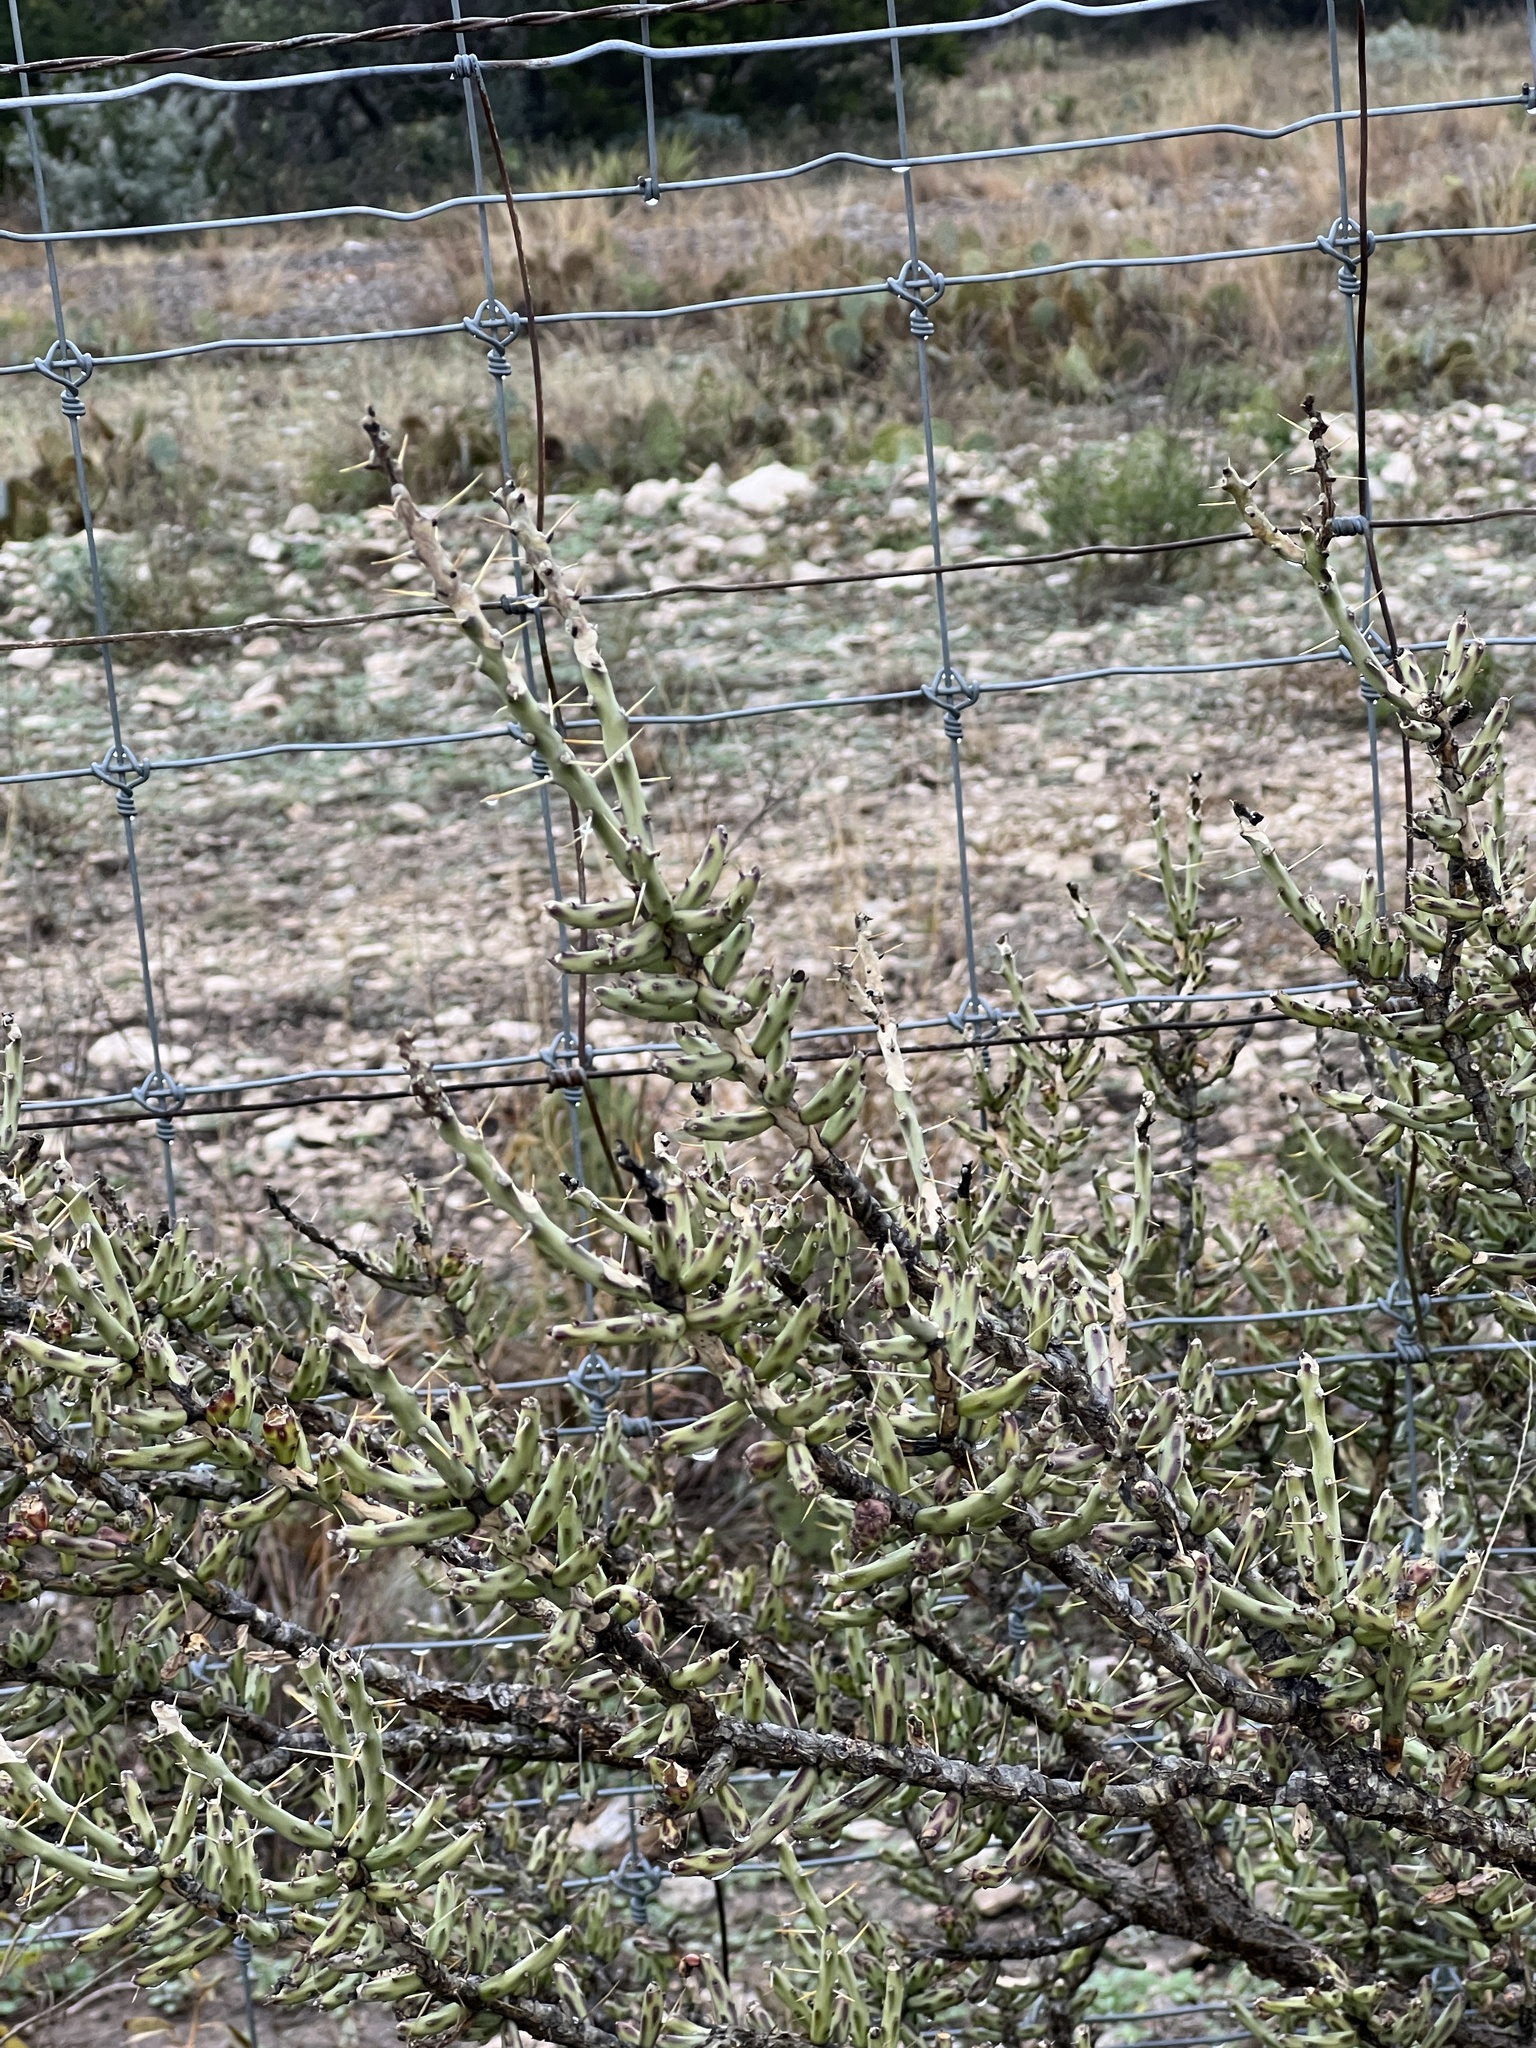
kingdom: Plantae
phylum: Tracheophyta
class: Magnoliopsida
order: Caryophyllales
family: Cactaceae
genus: Cylindropuntia
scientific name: Cylindropuntia leptocaulis
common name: Christmas cactus
